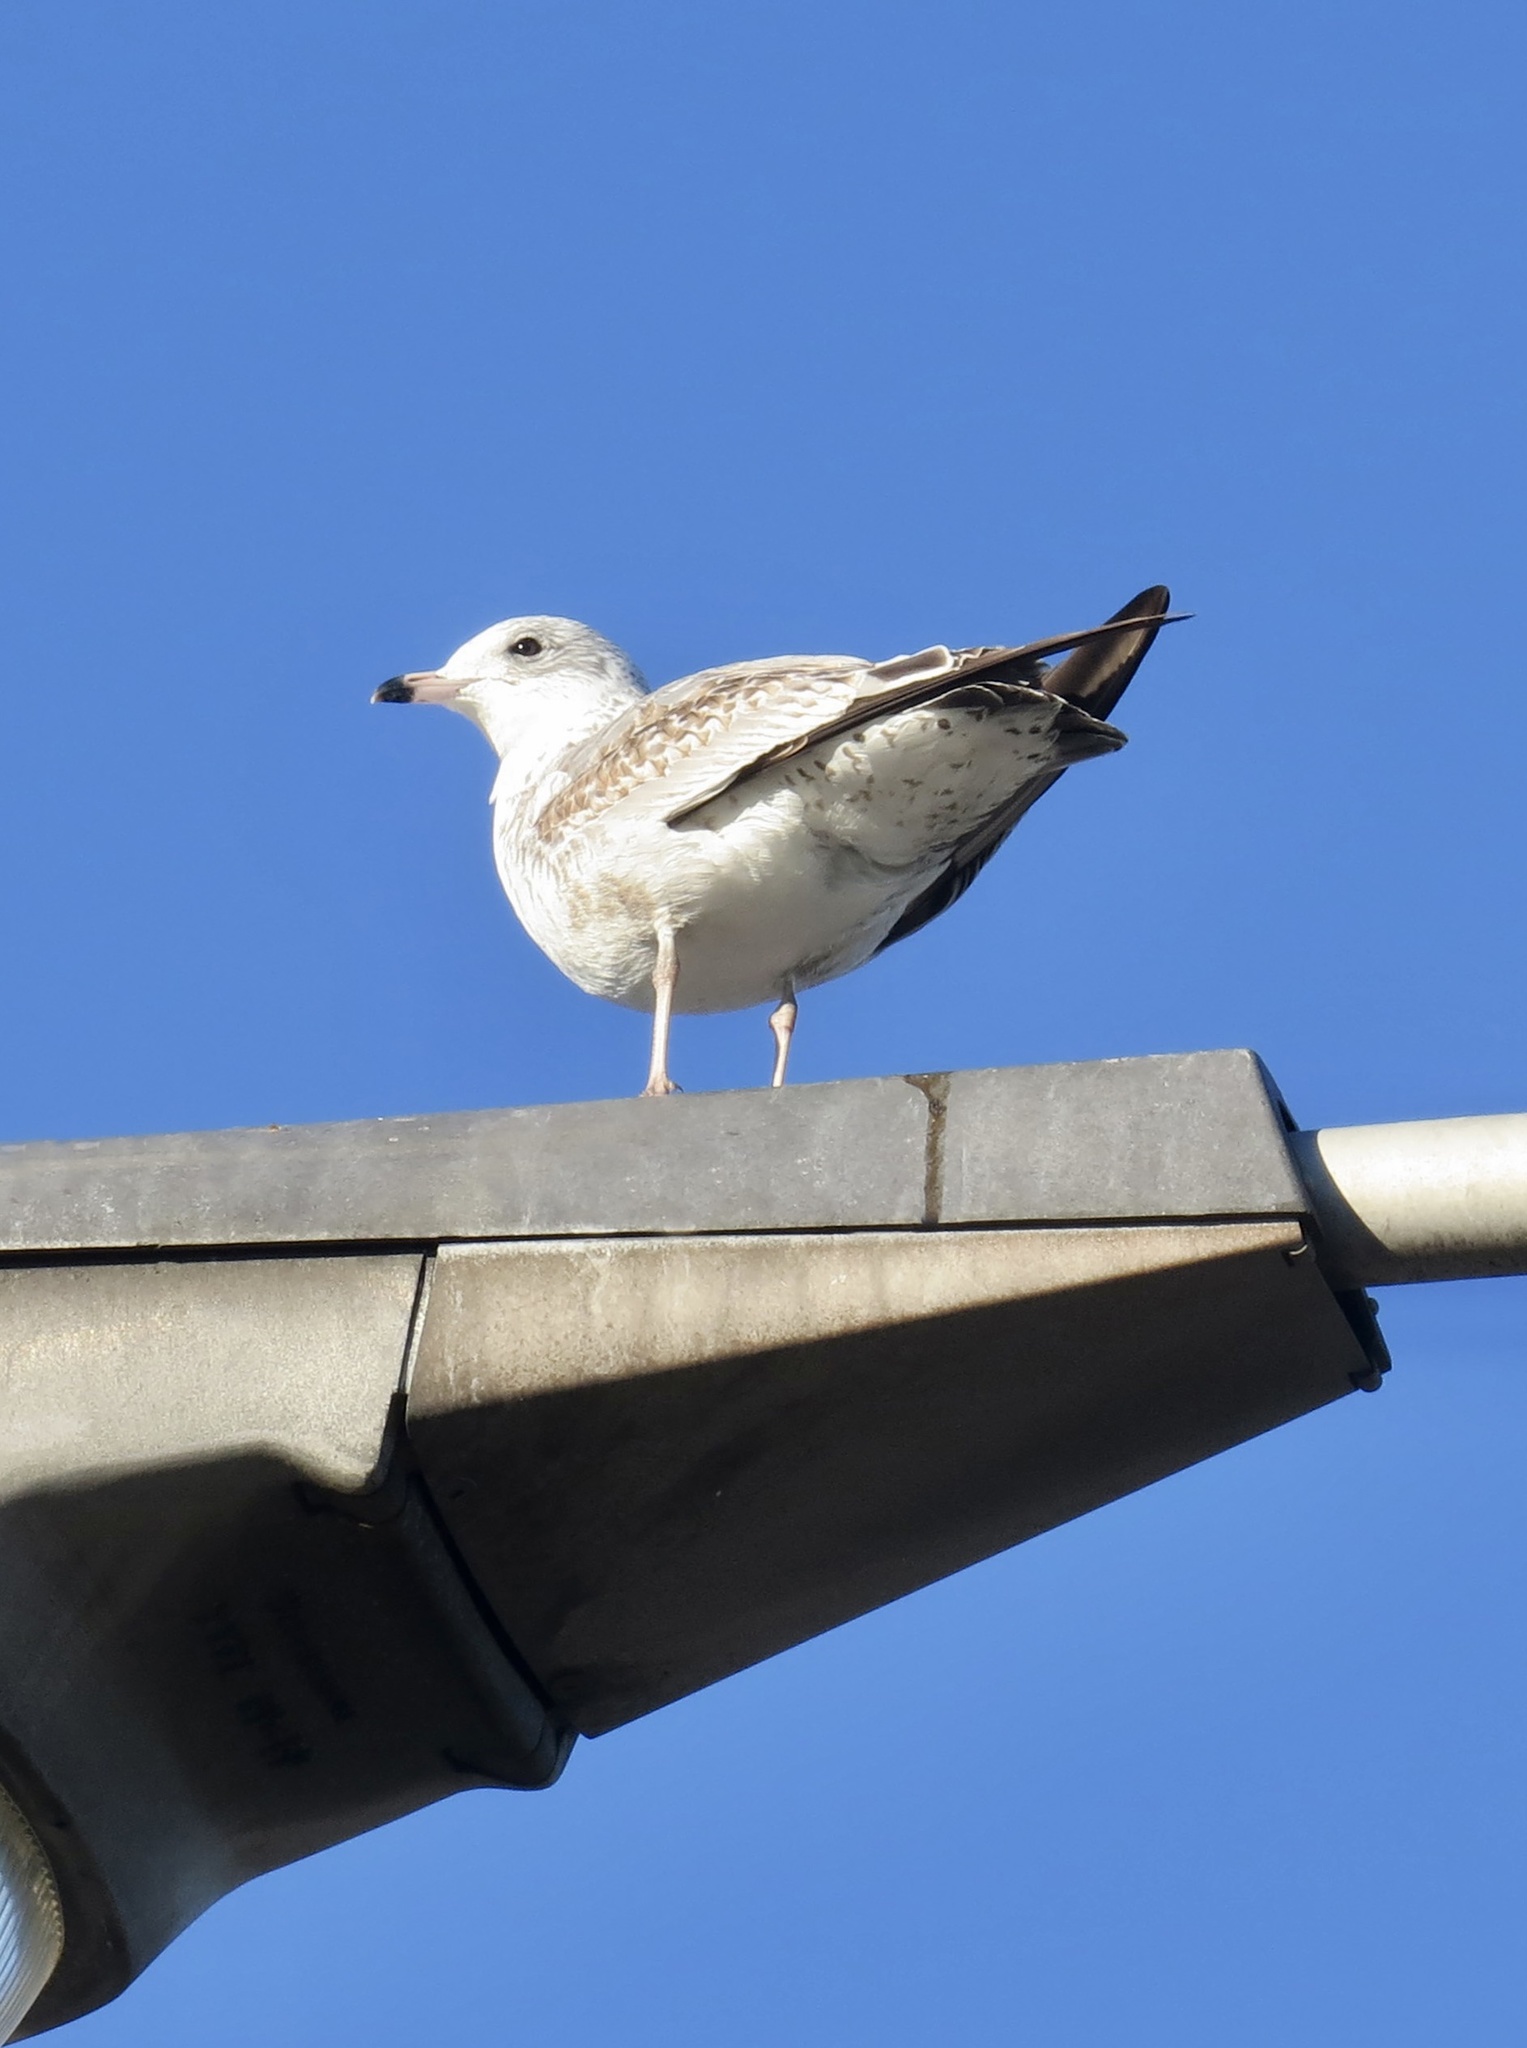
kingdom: Animalia
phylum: Chordata
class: Aves
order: Charadriiformes
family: Laridae
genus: Larus
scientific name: Larus delawarensis
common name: Ring-billed gull
